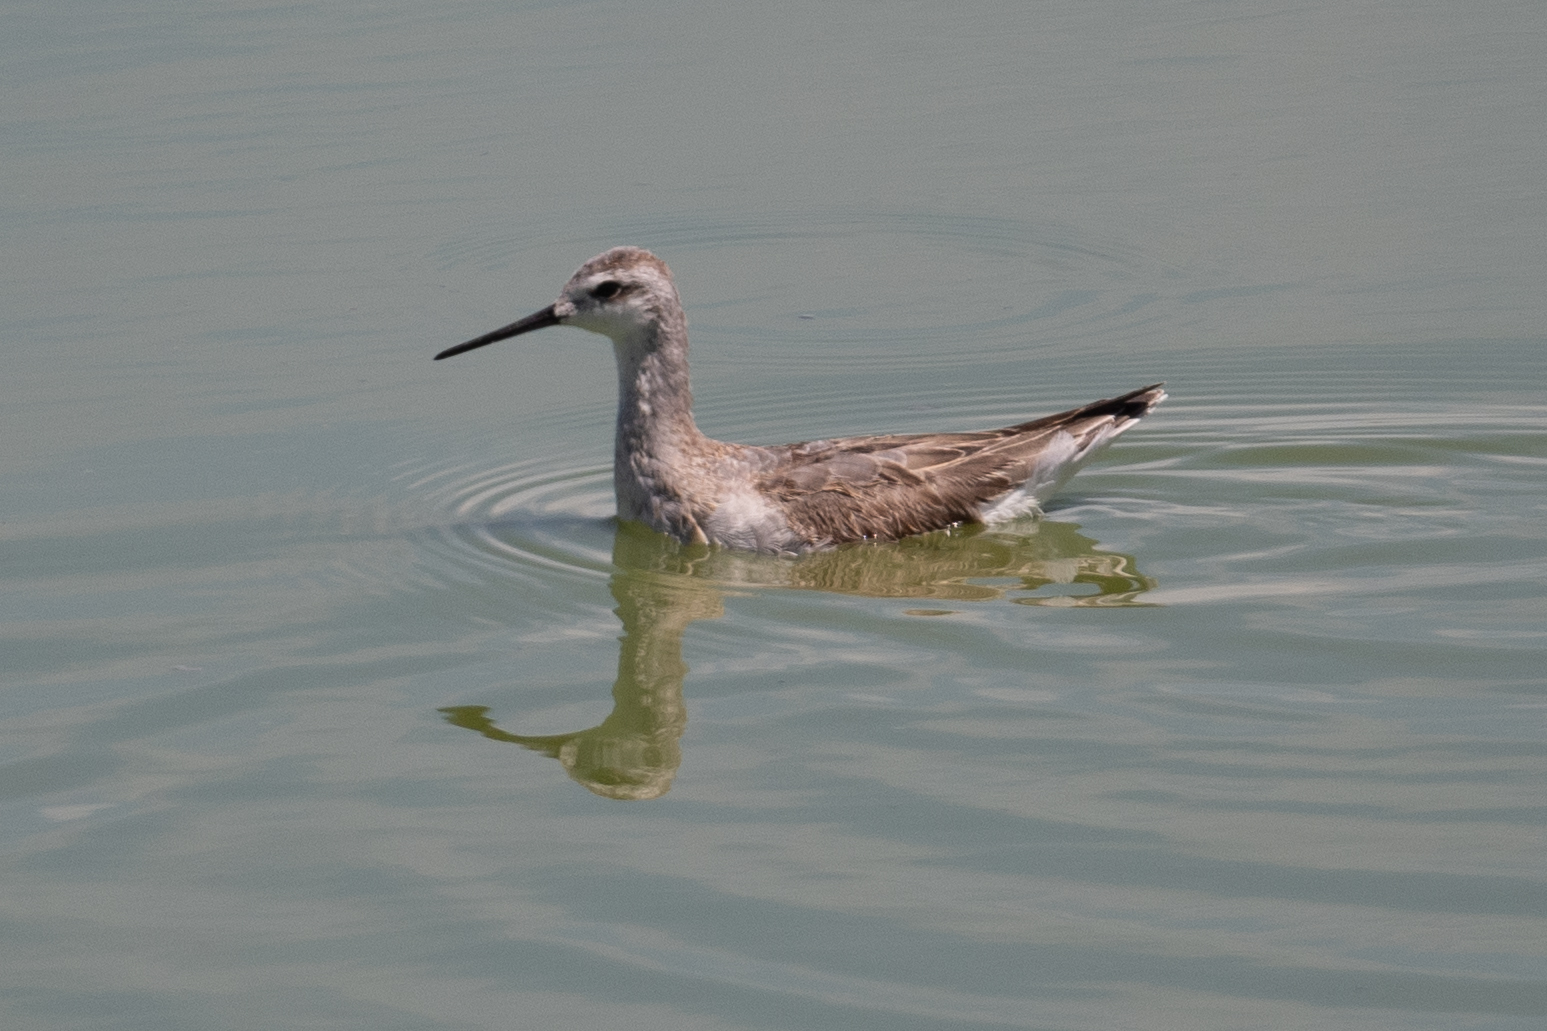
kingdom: Animalia
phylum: Chordata
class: Aves
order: Charadriiformes
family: Scolopacidae
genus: Phalaropus
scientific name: Phalaropus tricolor
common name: Wilson's phalarope
